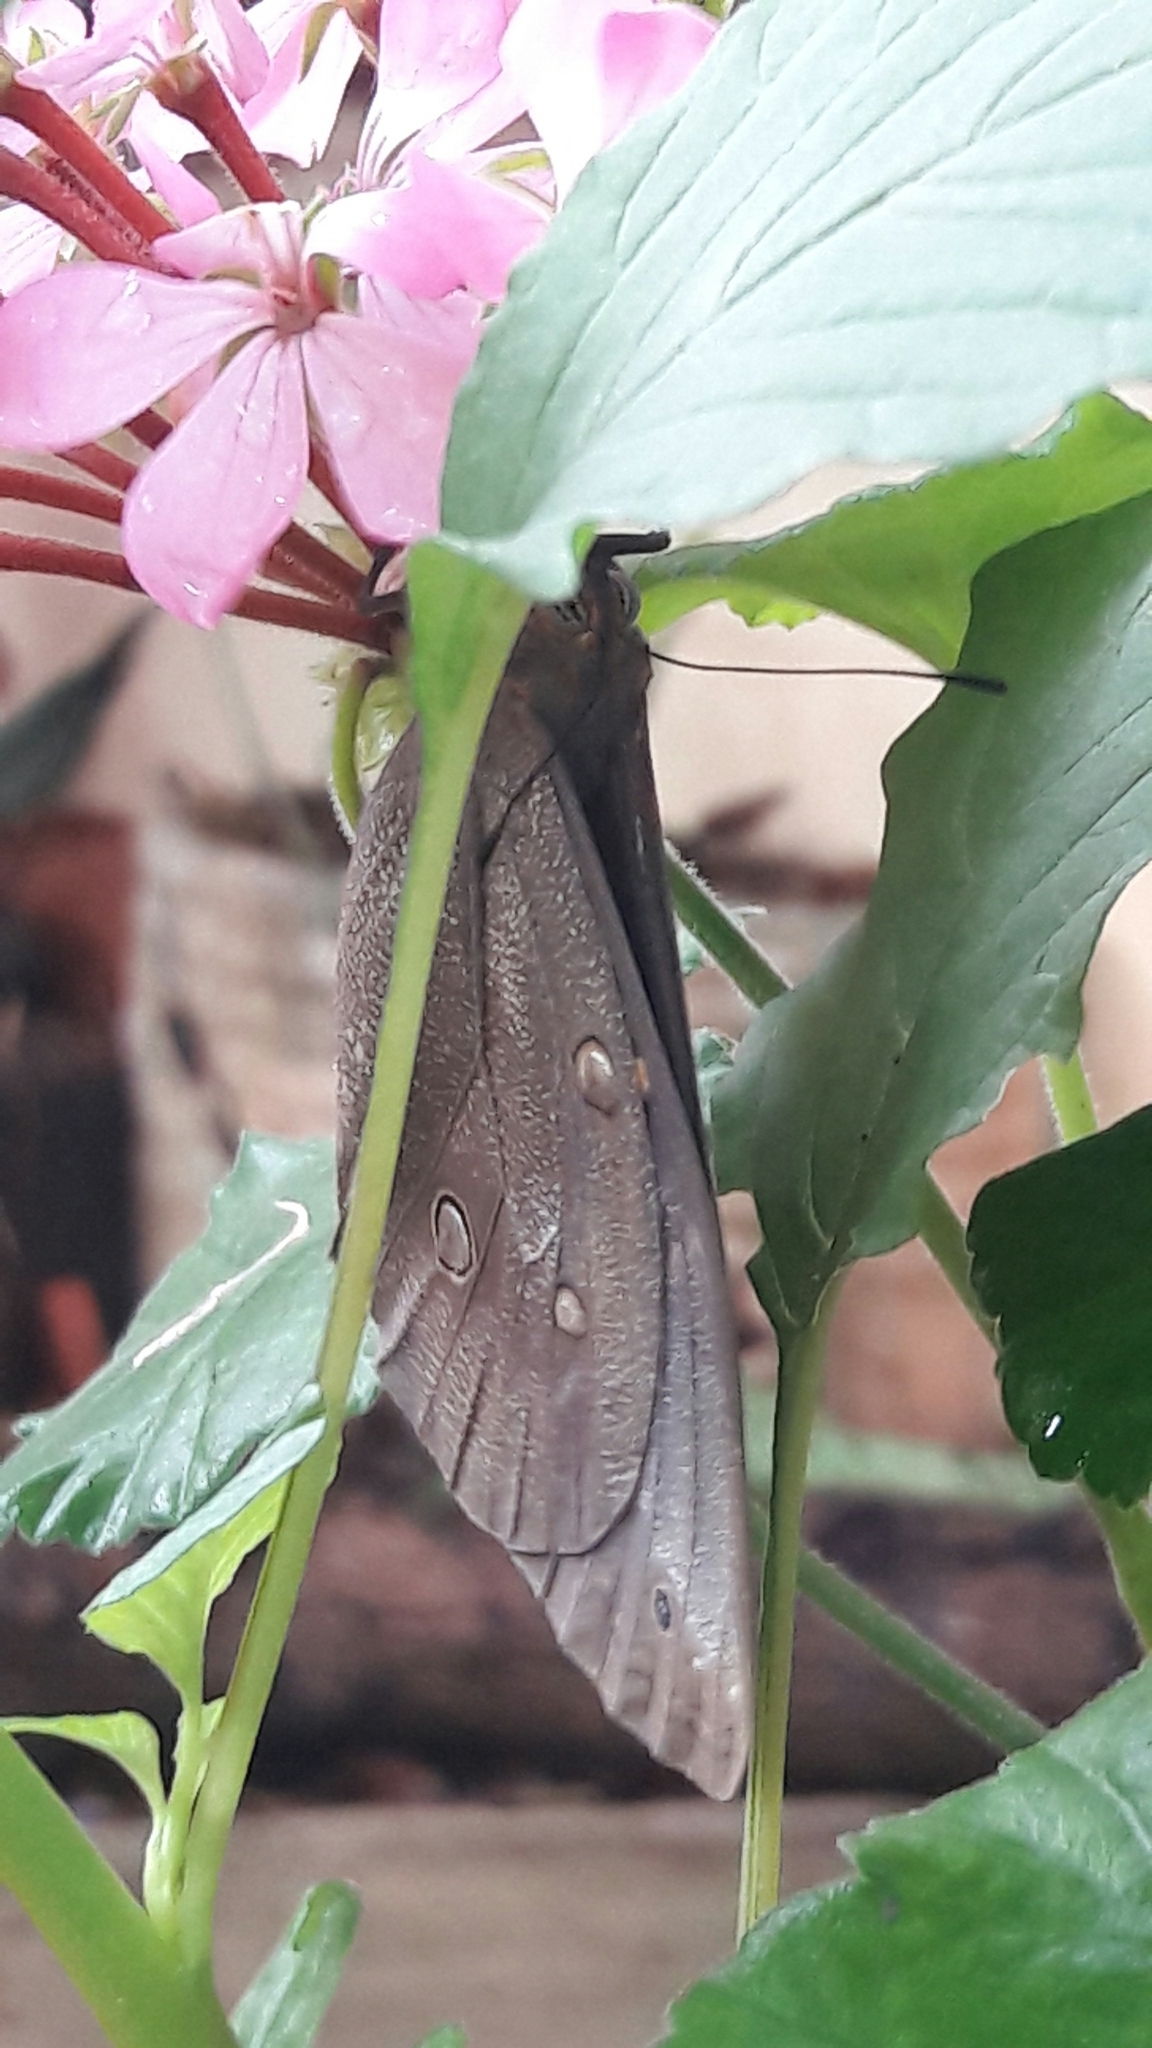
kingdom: Animalia
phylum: Arthropoda
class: Insecta
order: Lepidoptera
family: Nymphalidae
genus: Brassolis
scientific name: Brassolis sophorae
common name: Coconut caterpillar
